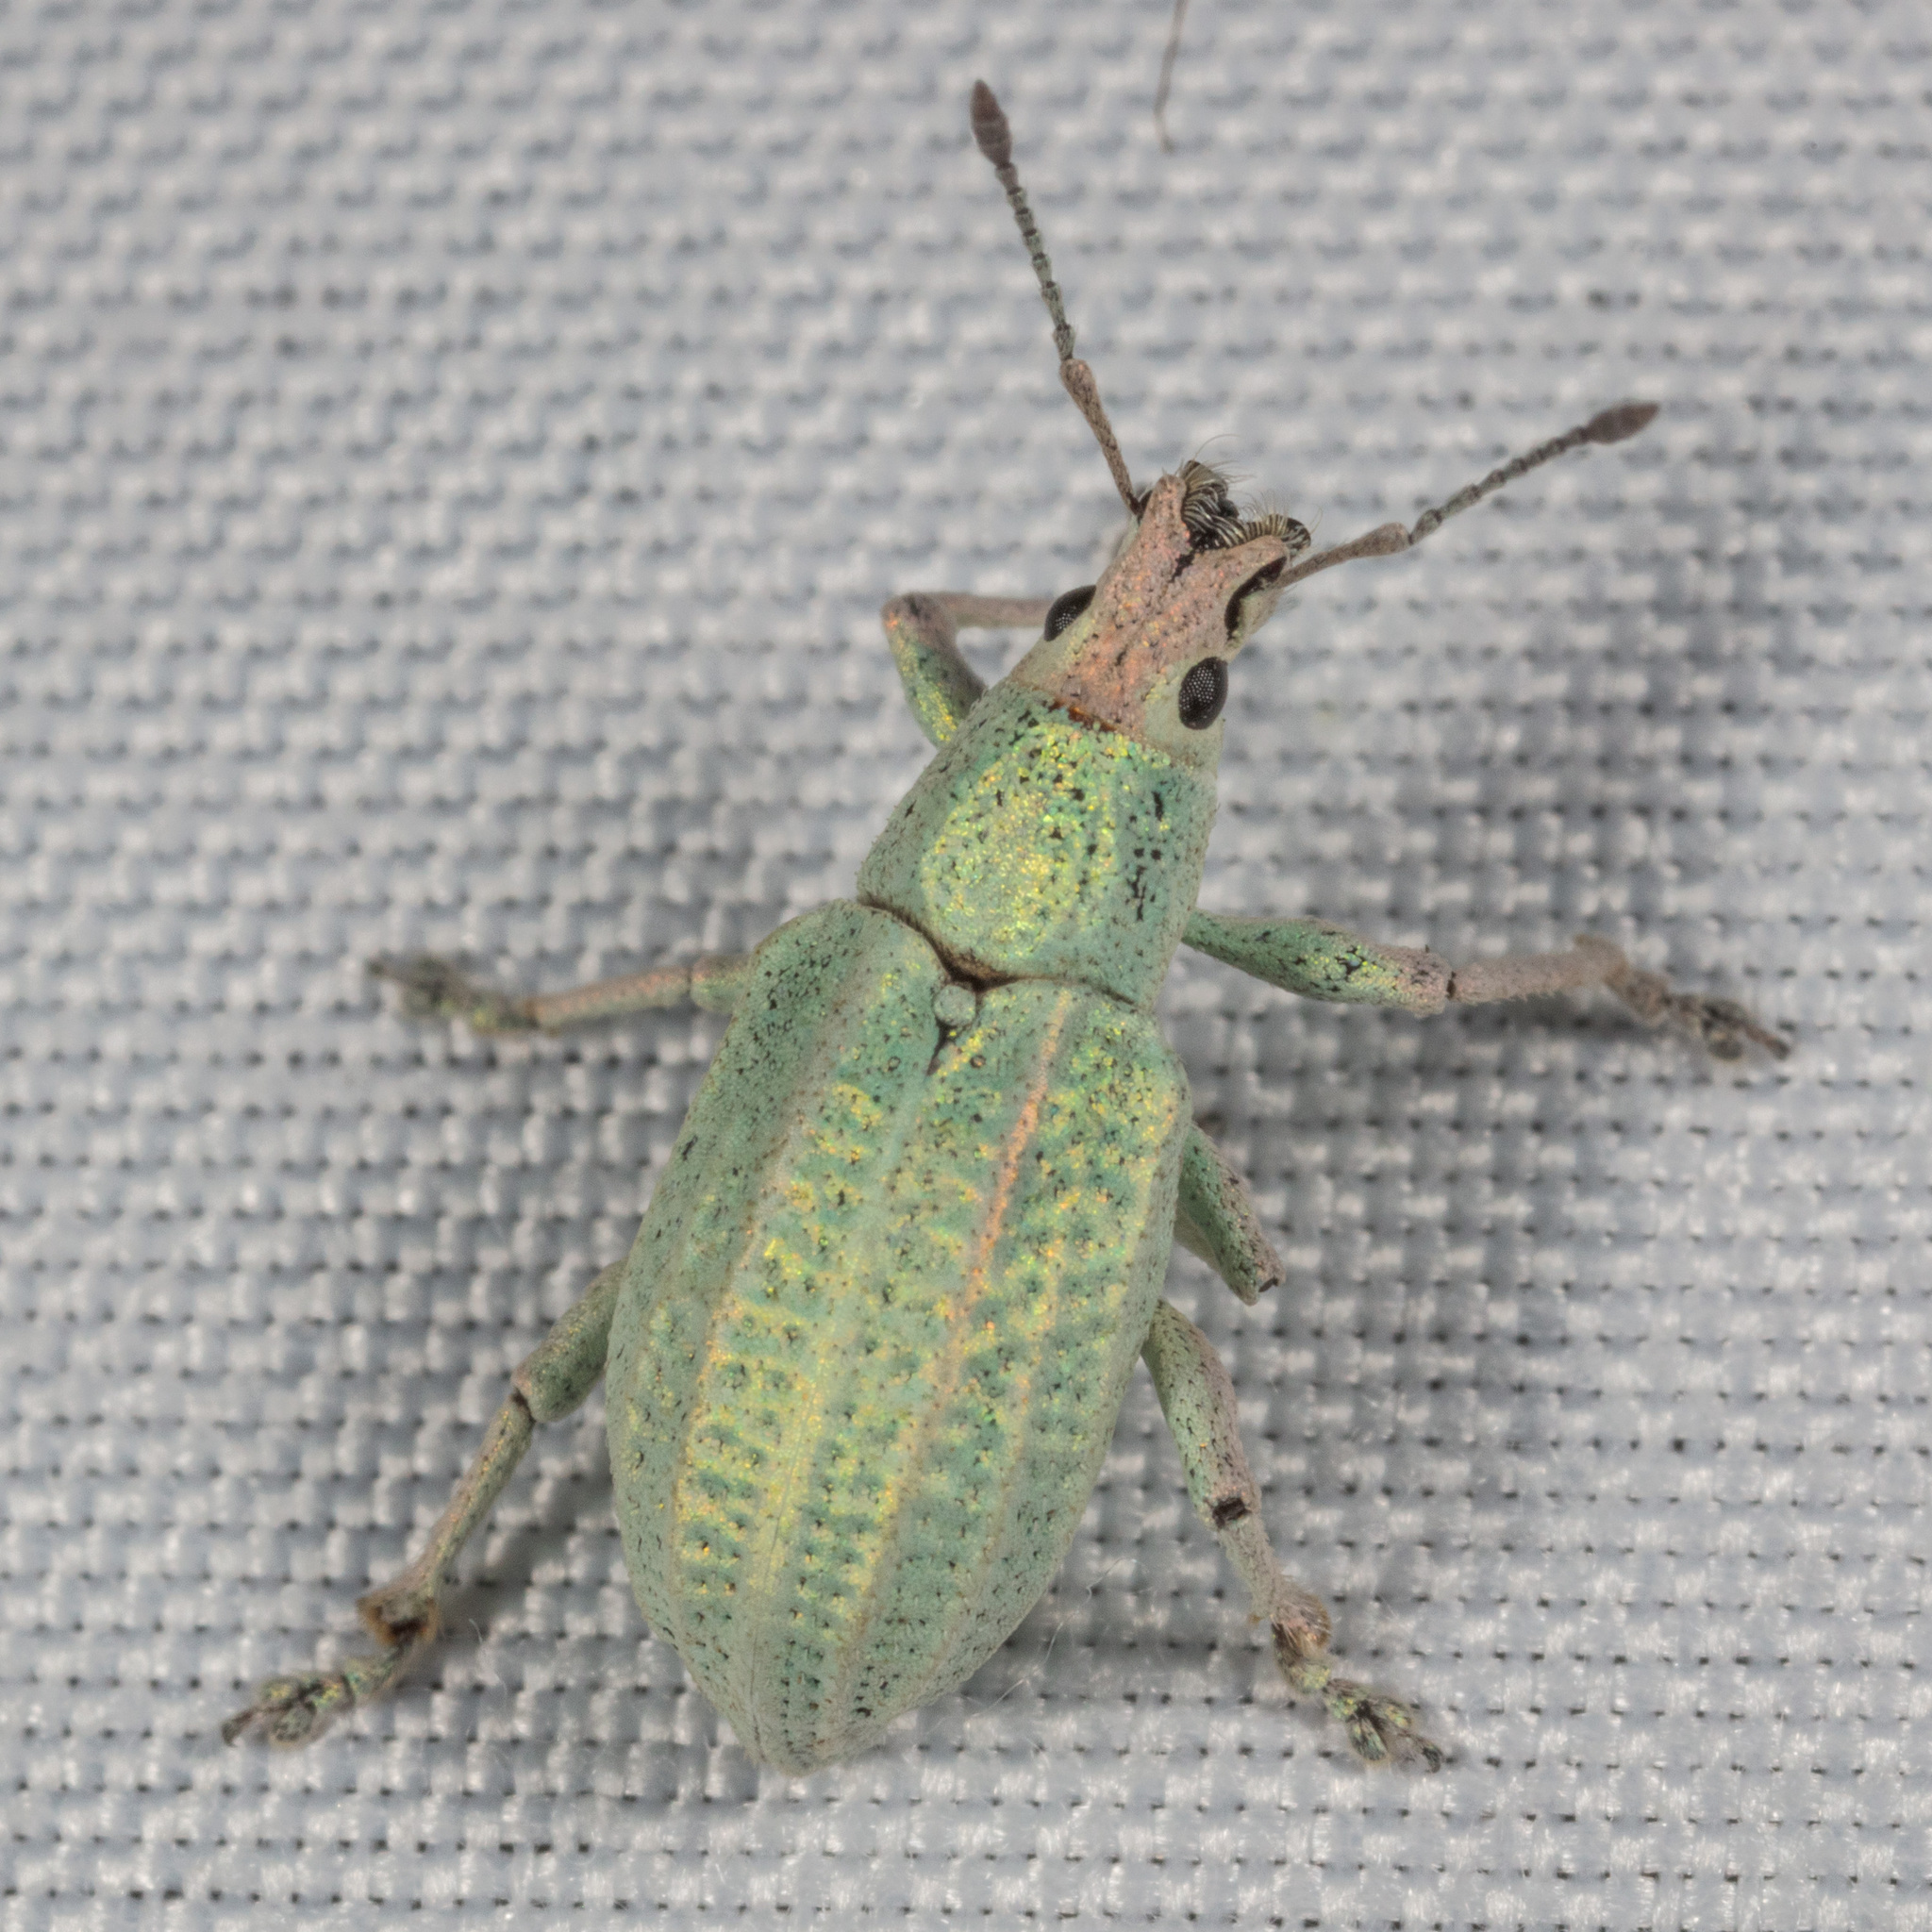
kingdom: Animalia
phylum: Arthropoda
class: Insecta
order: Coleoptera
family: Curculionidae
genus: Compsus
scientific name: Compsus auricephalus
